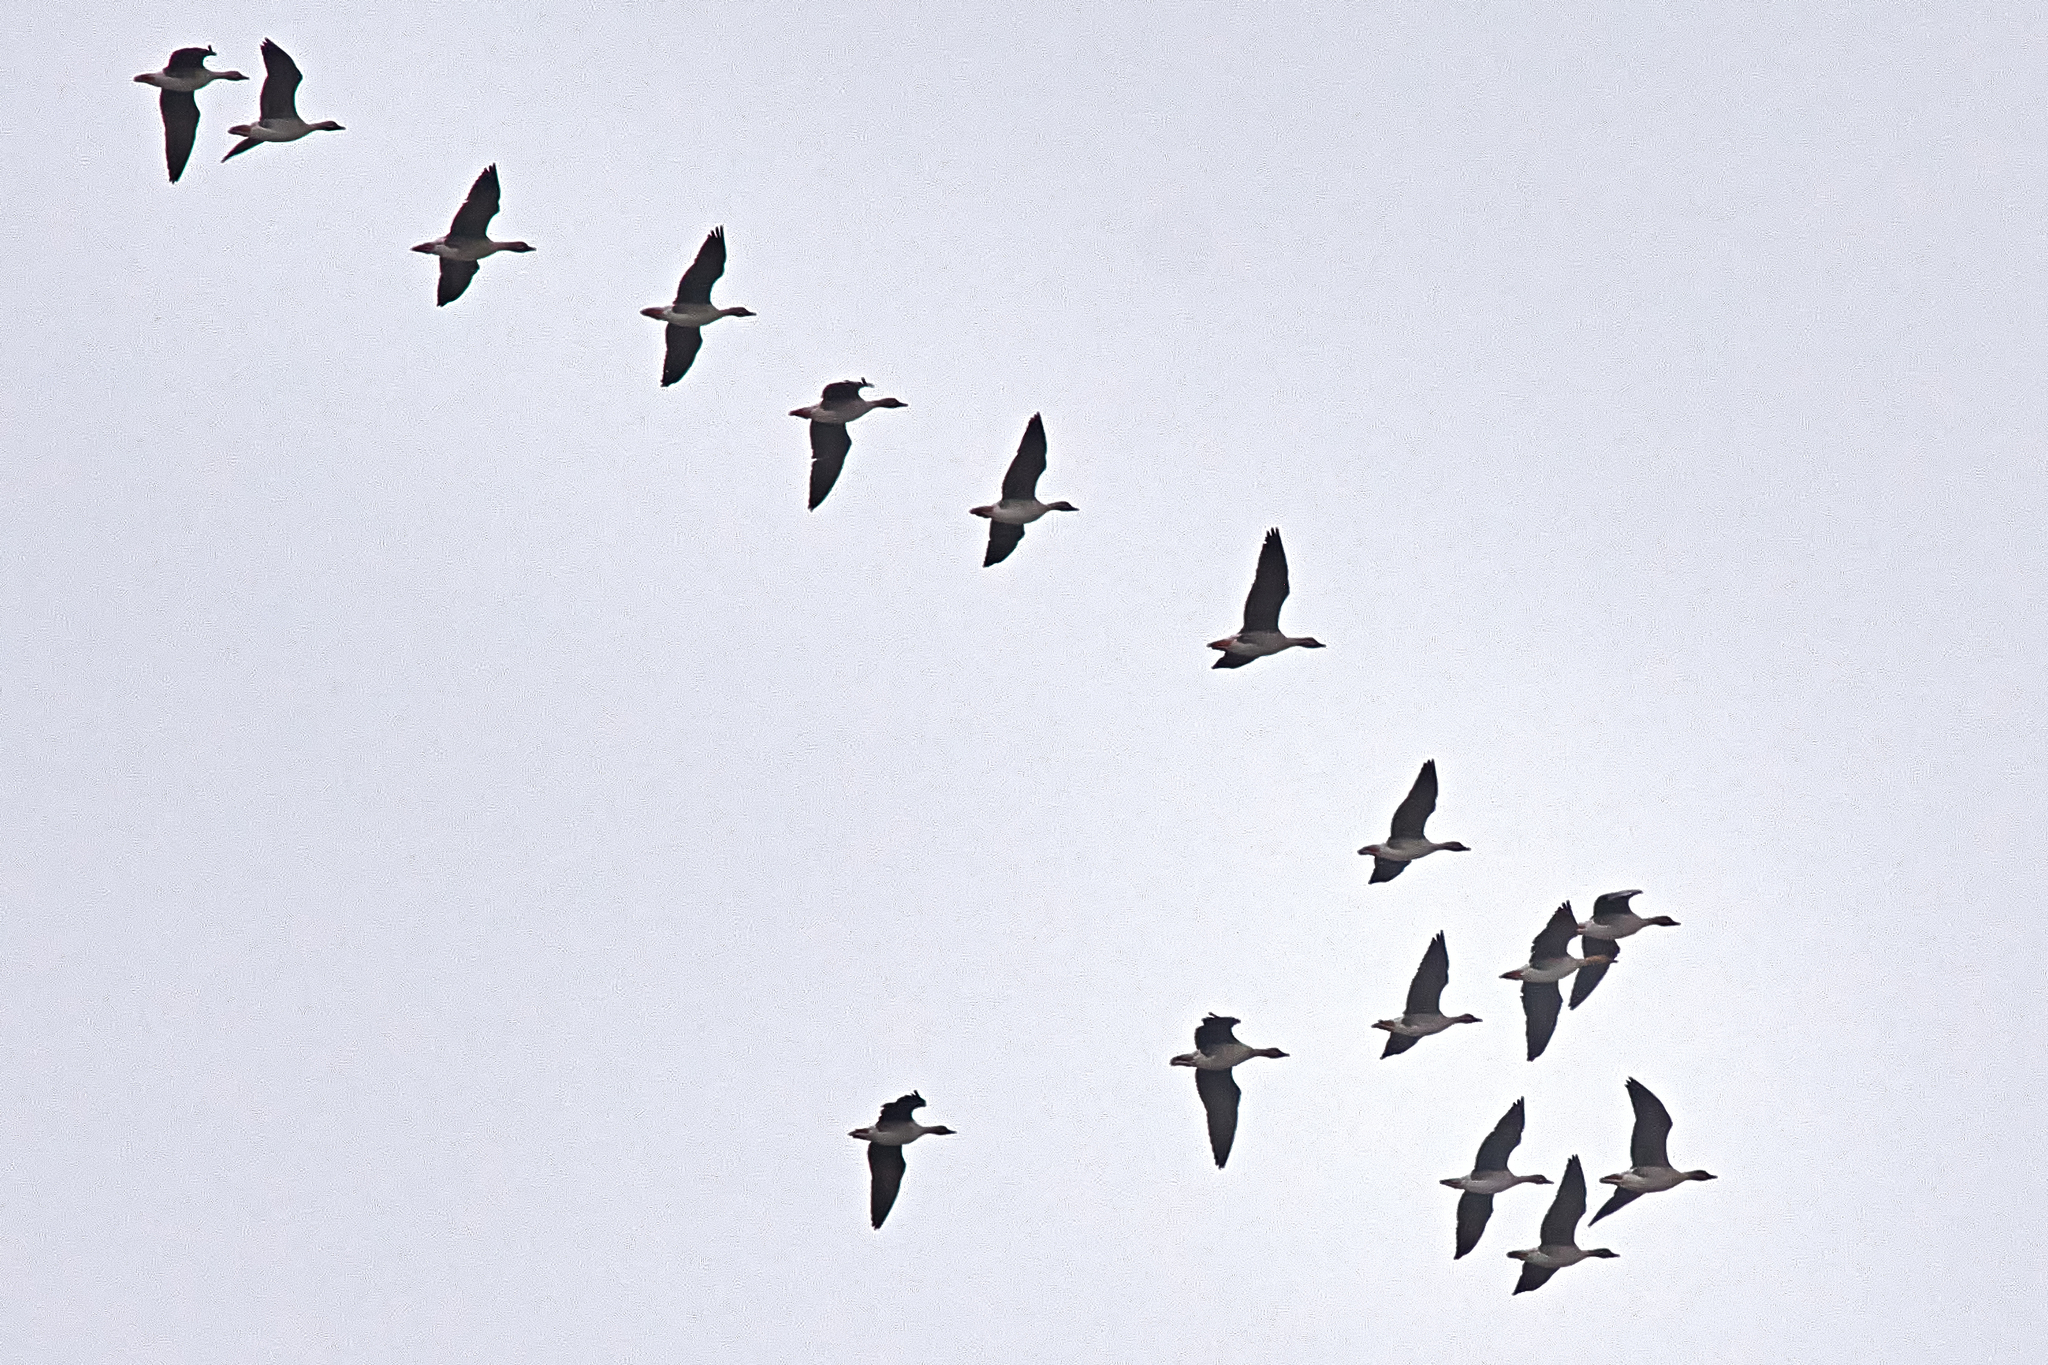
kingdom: Animalia
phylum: Chordata
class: Aves
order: Anseriformes
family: Anatidae
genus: Anser
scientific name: Anser fabalis
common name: Bean goose
